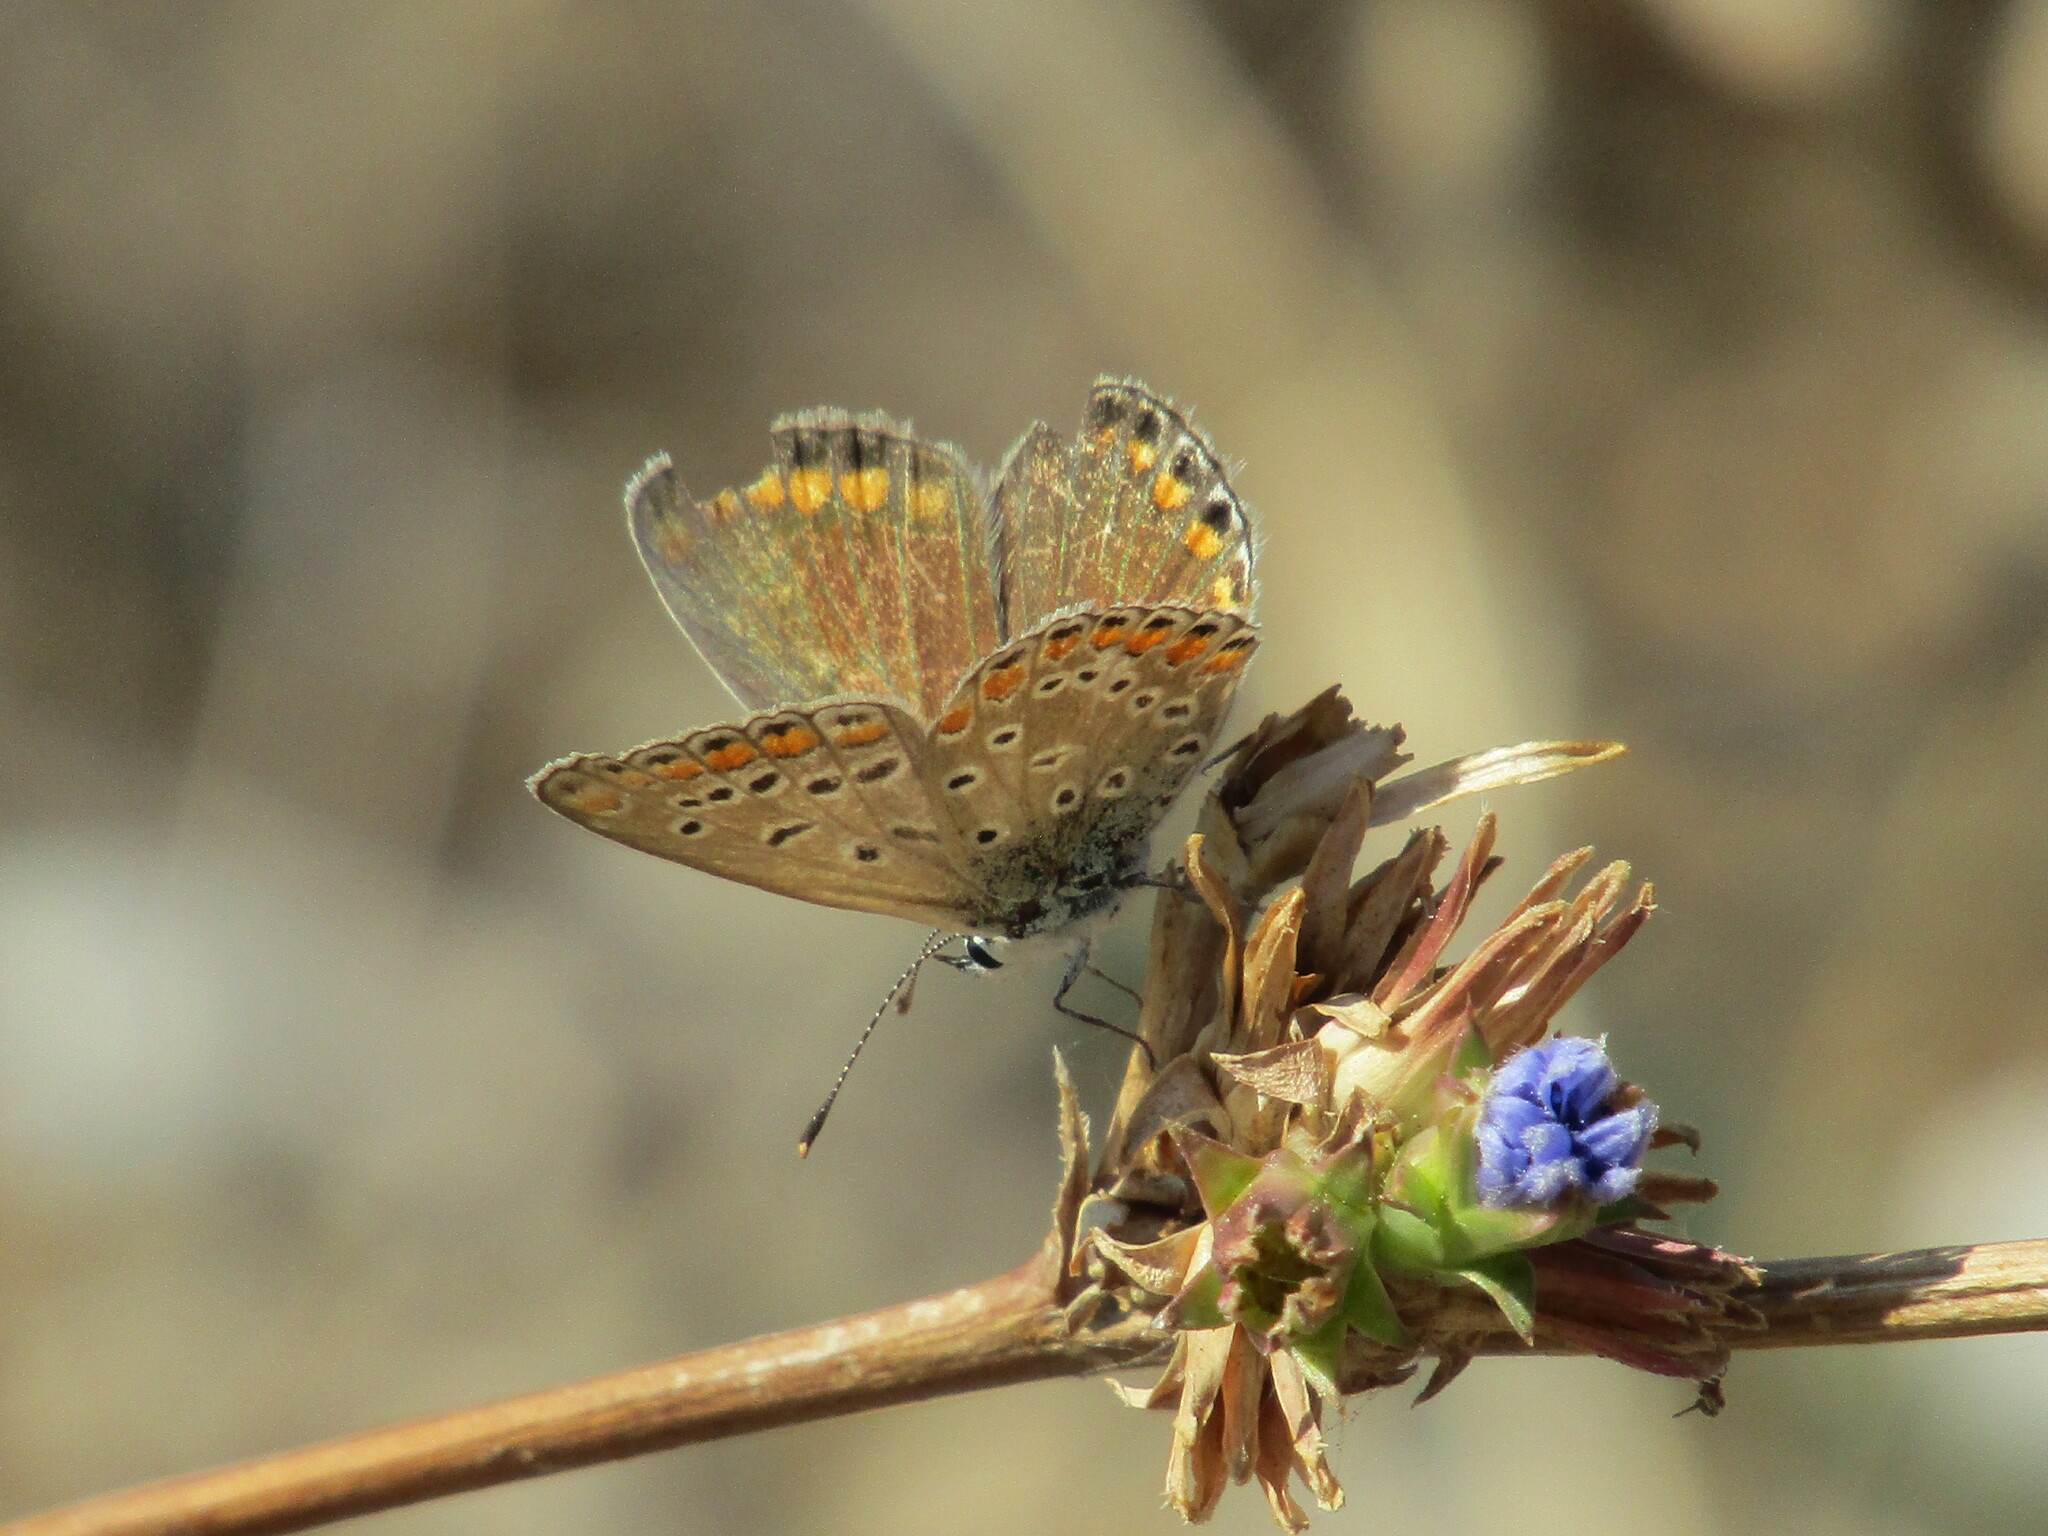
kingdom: Animalia
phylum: Arthropoda
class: Insecta
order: Lepidoptera
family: Lycaenidae
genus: Polyommatus
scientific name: Polyommatus icarus
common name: Common blue
